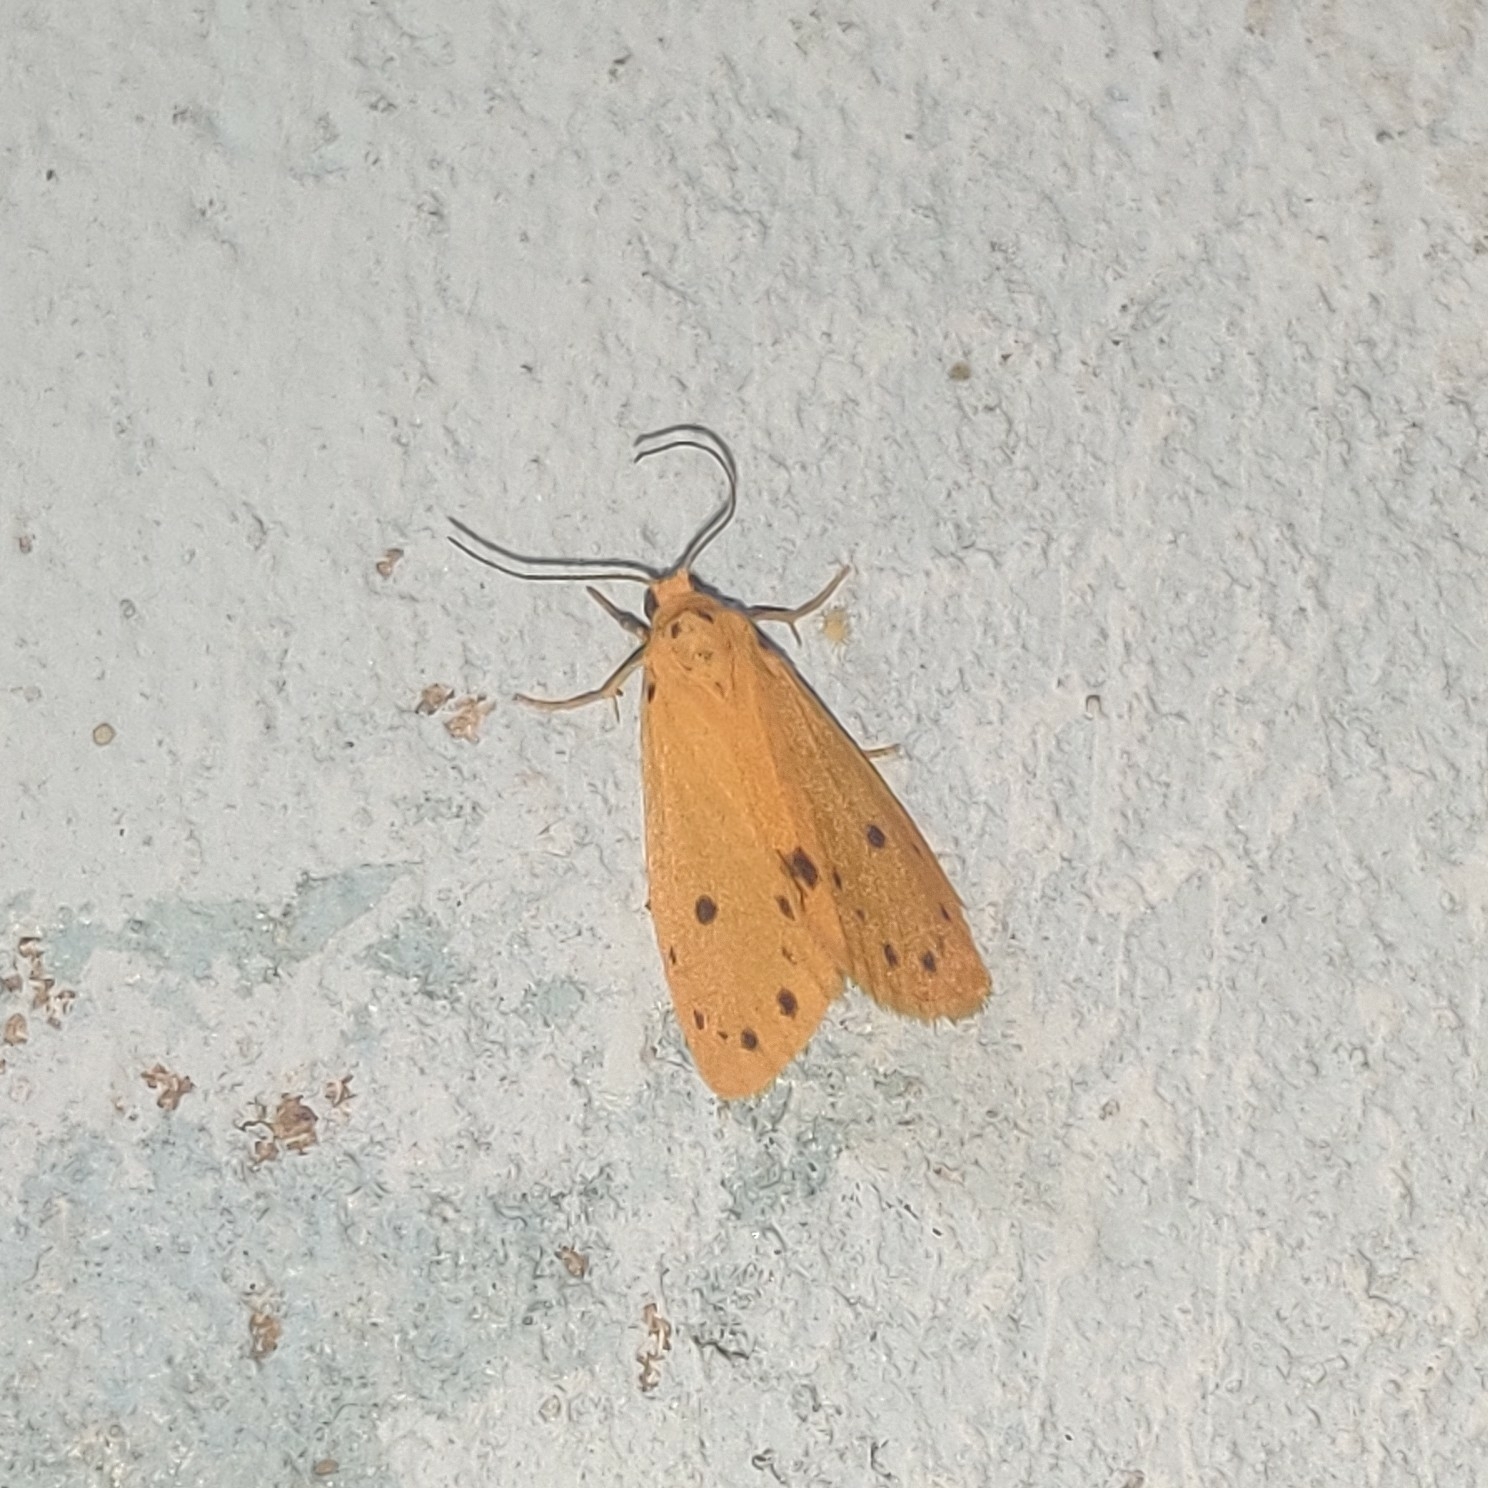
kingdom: Animalia
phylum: Arthropoda
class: Insecta
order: Lepidoptera
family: Erebidae
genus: Miltochrista
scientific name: Miltochrista discisigna
